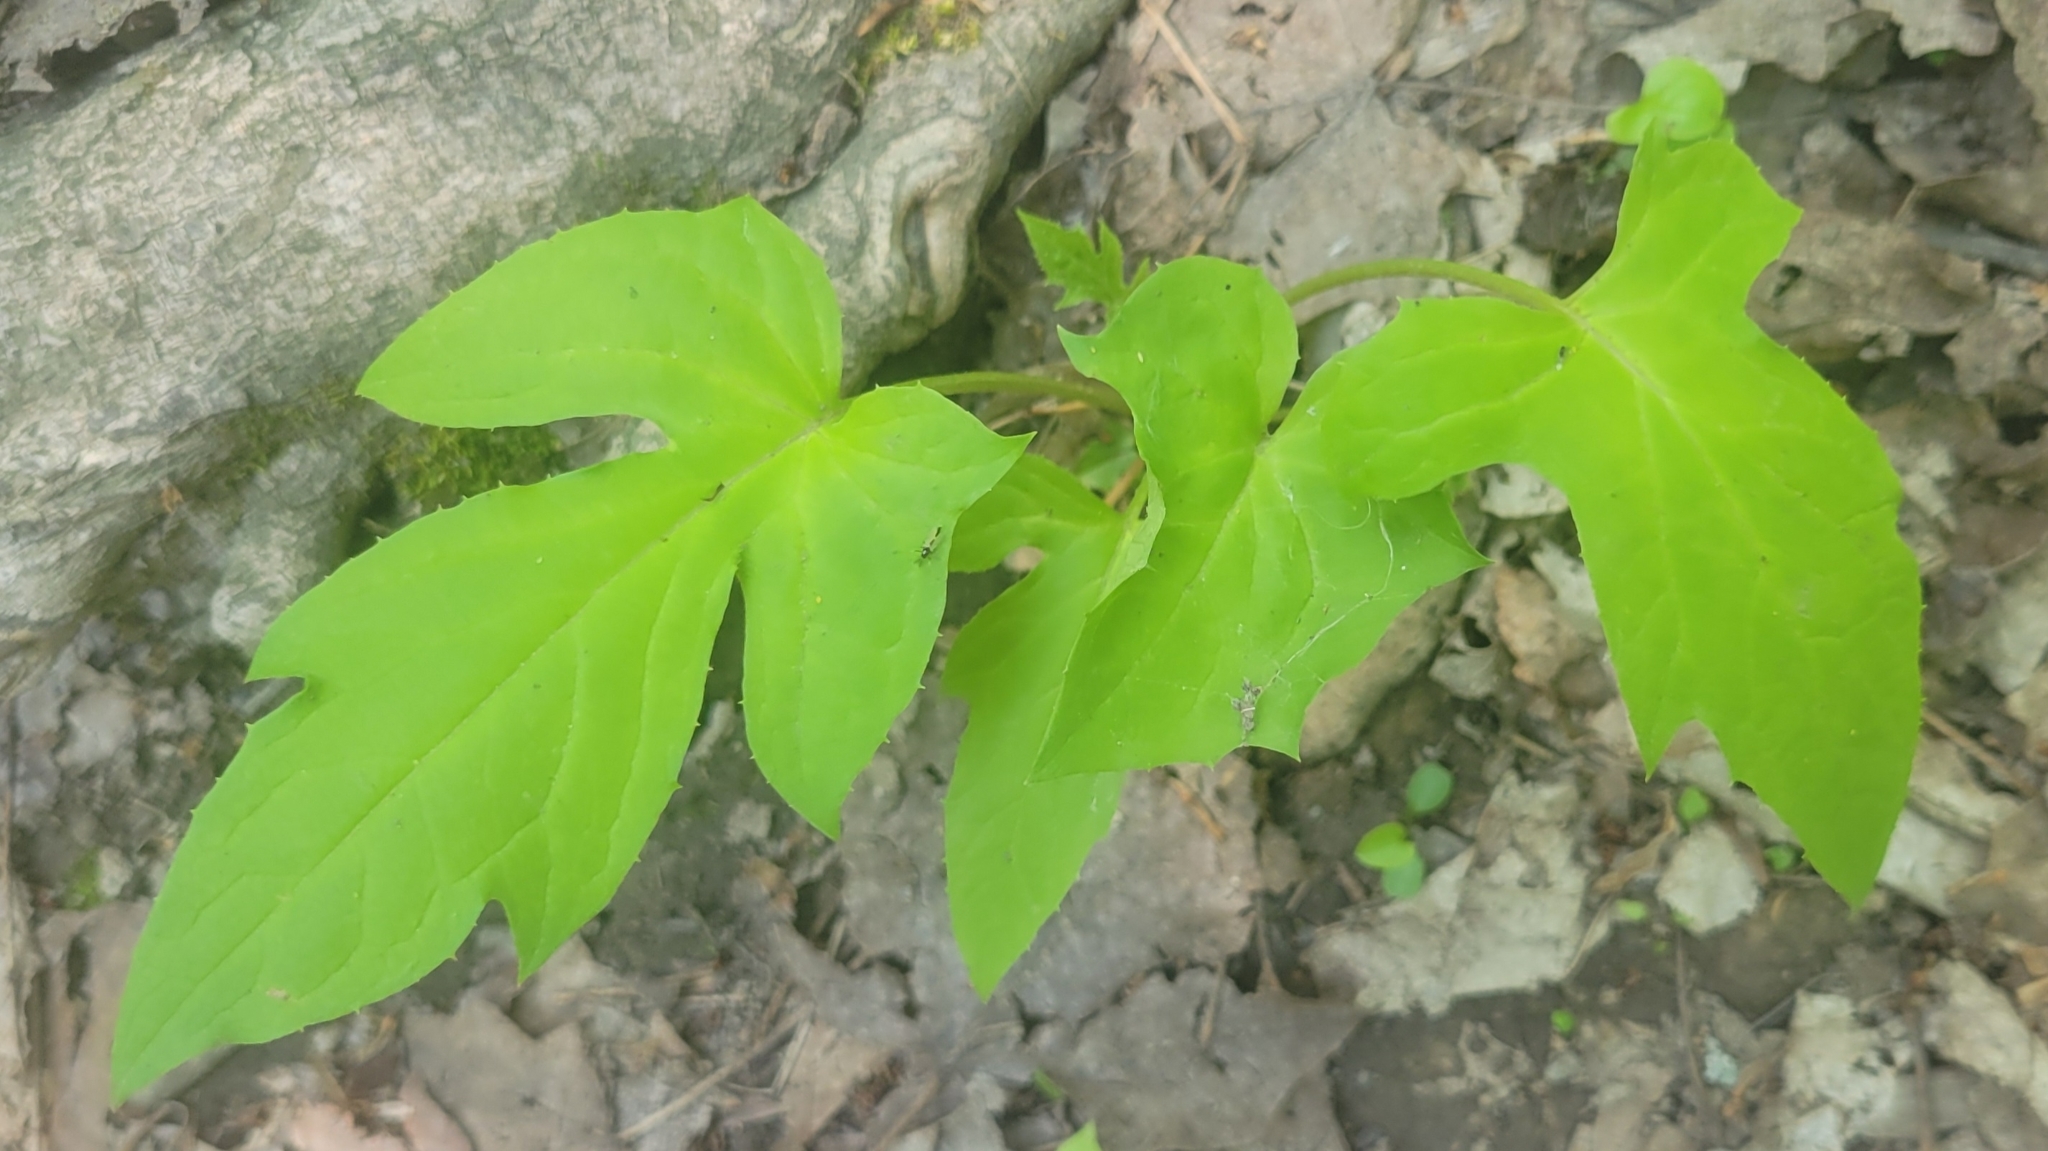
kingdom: Plantae
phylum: Tracheophyta
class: Magnoliopsida
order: Asterales
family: Asteraceae
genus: Nabalus
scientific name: Nabalus
